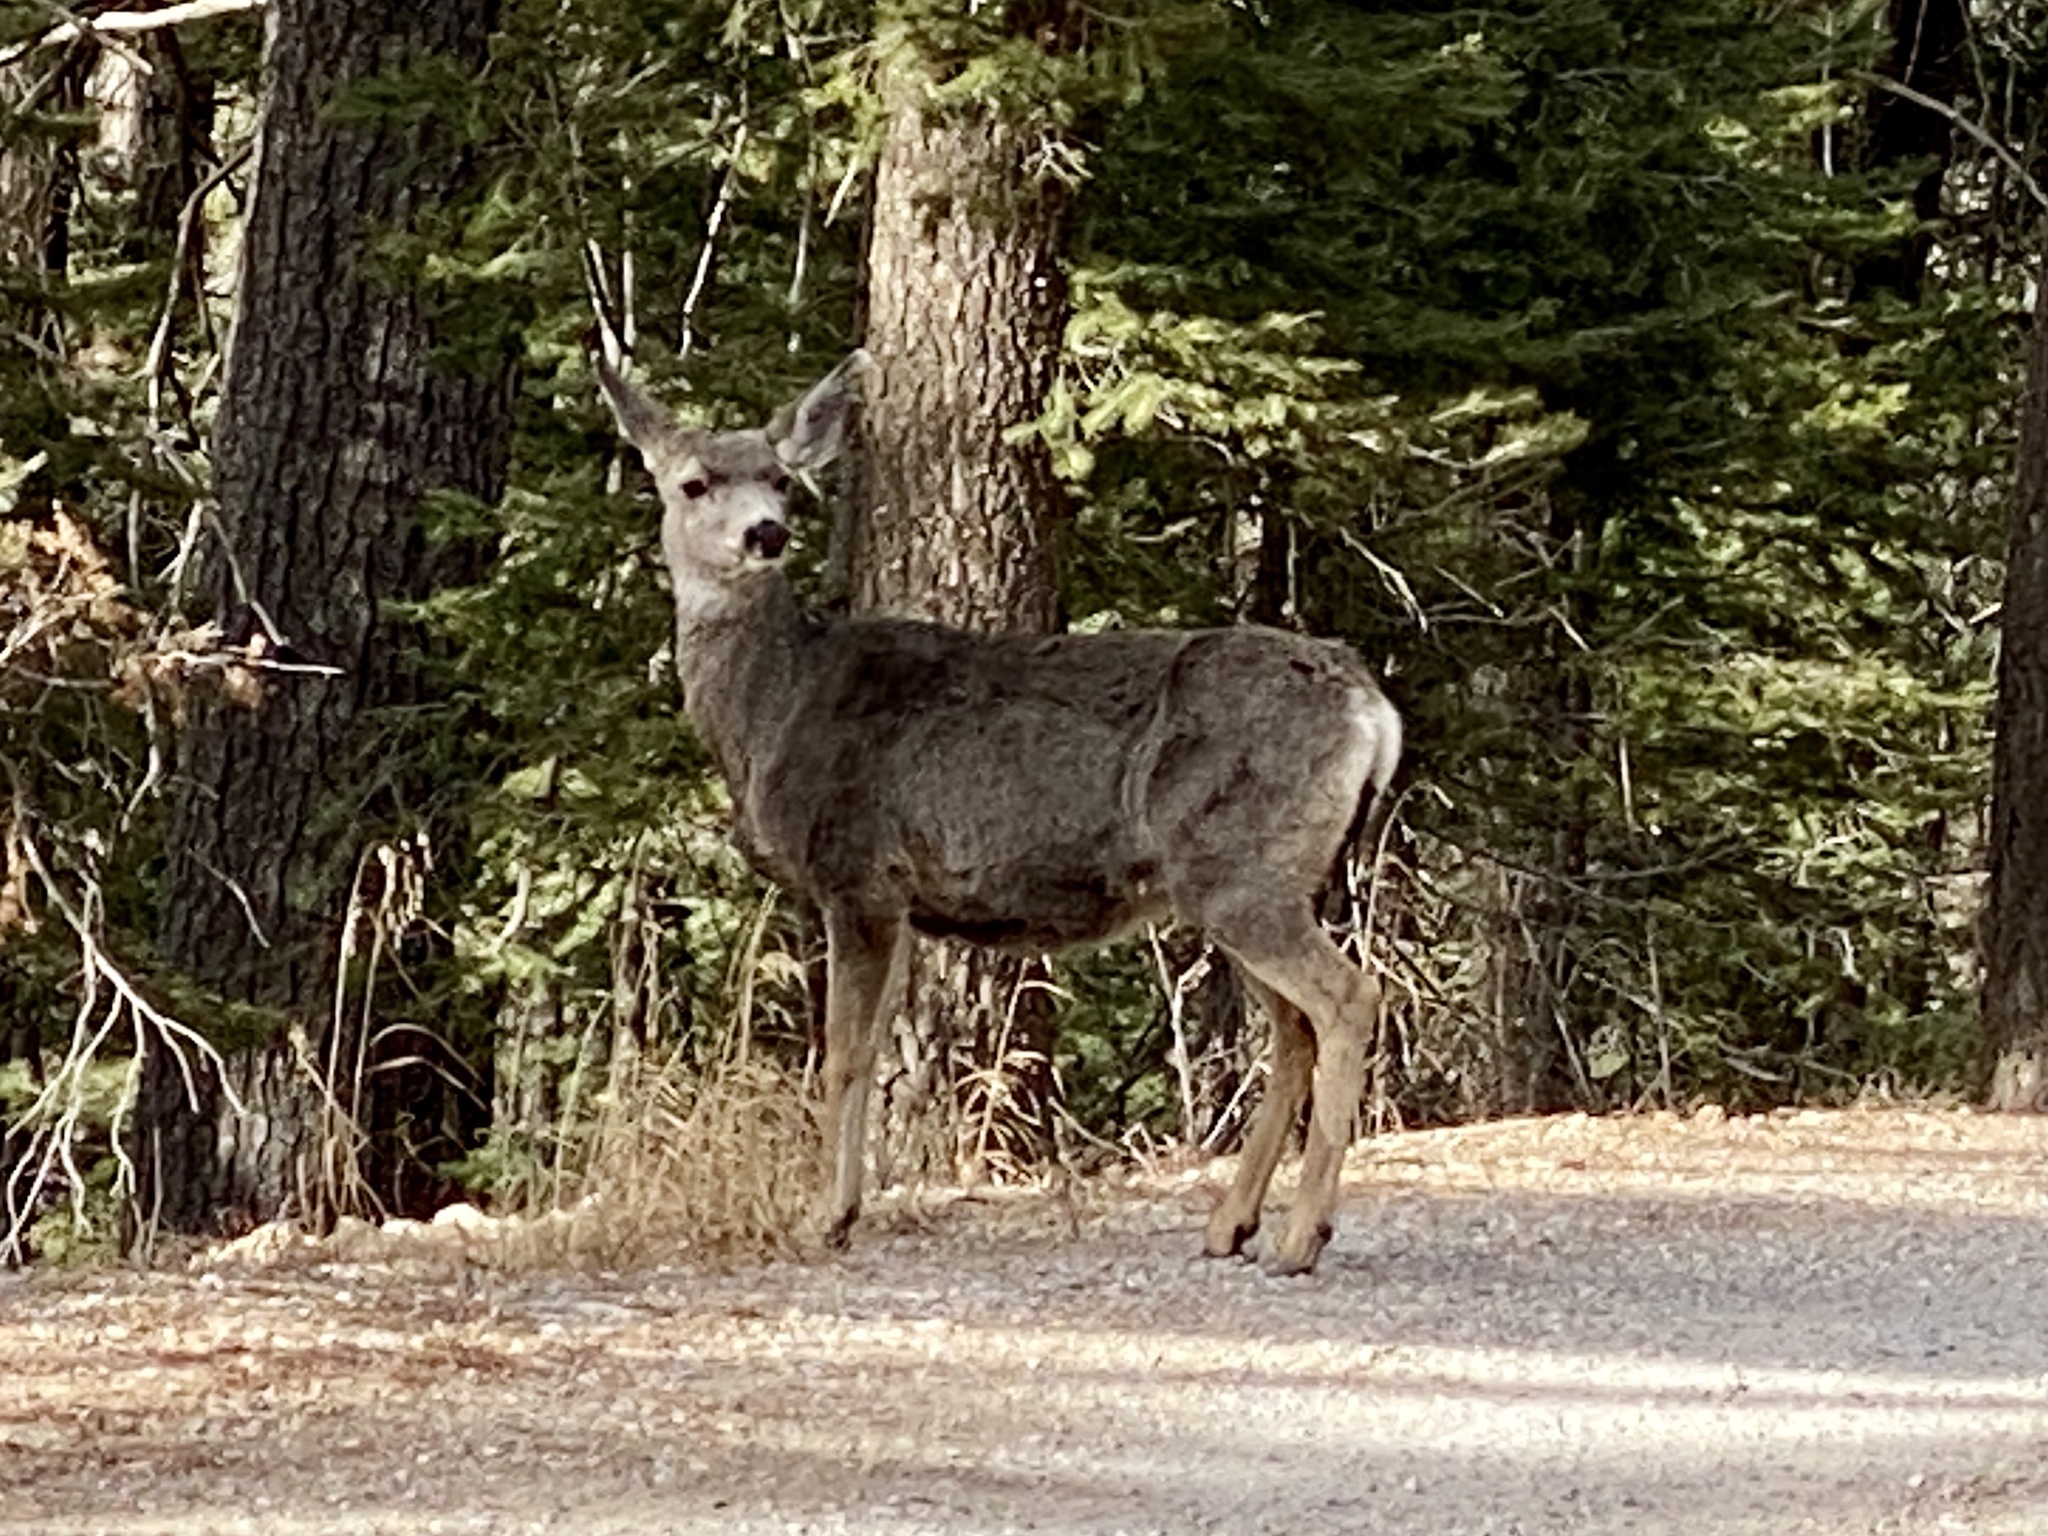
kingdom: Animalia
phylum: Chordata
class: Mammalia
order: Artiodactyla
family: Cervidae
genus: Odocoileus
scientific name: Odocoileus hemionus
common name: Mule deer
